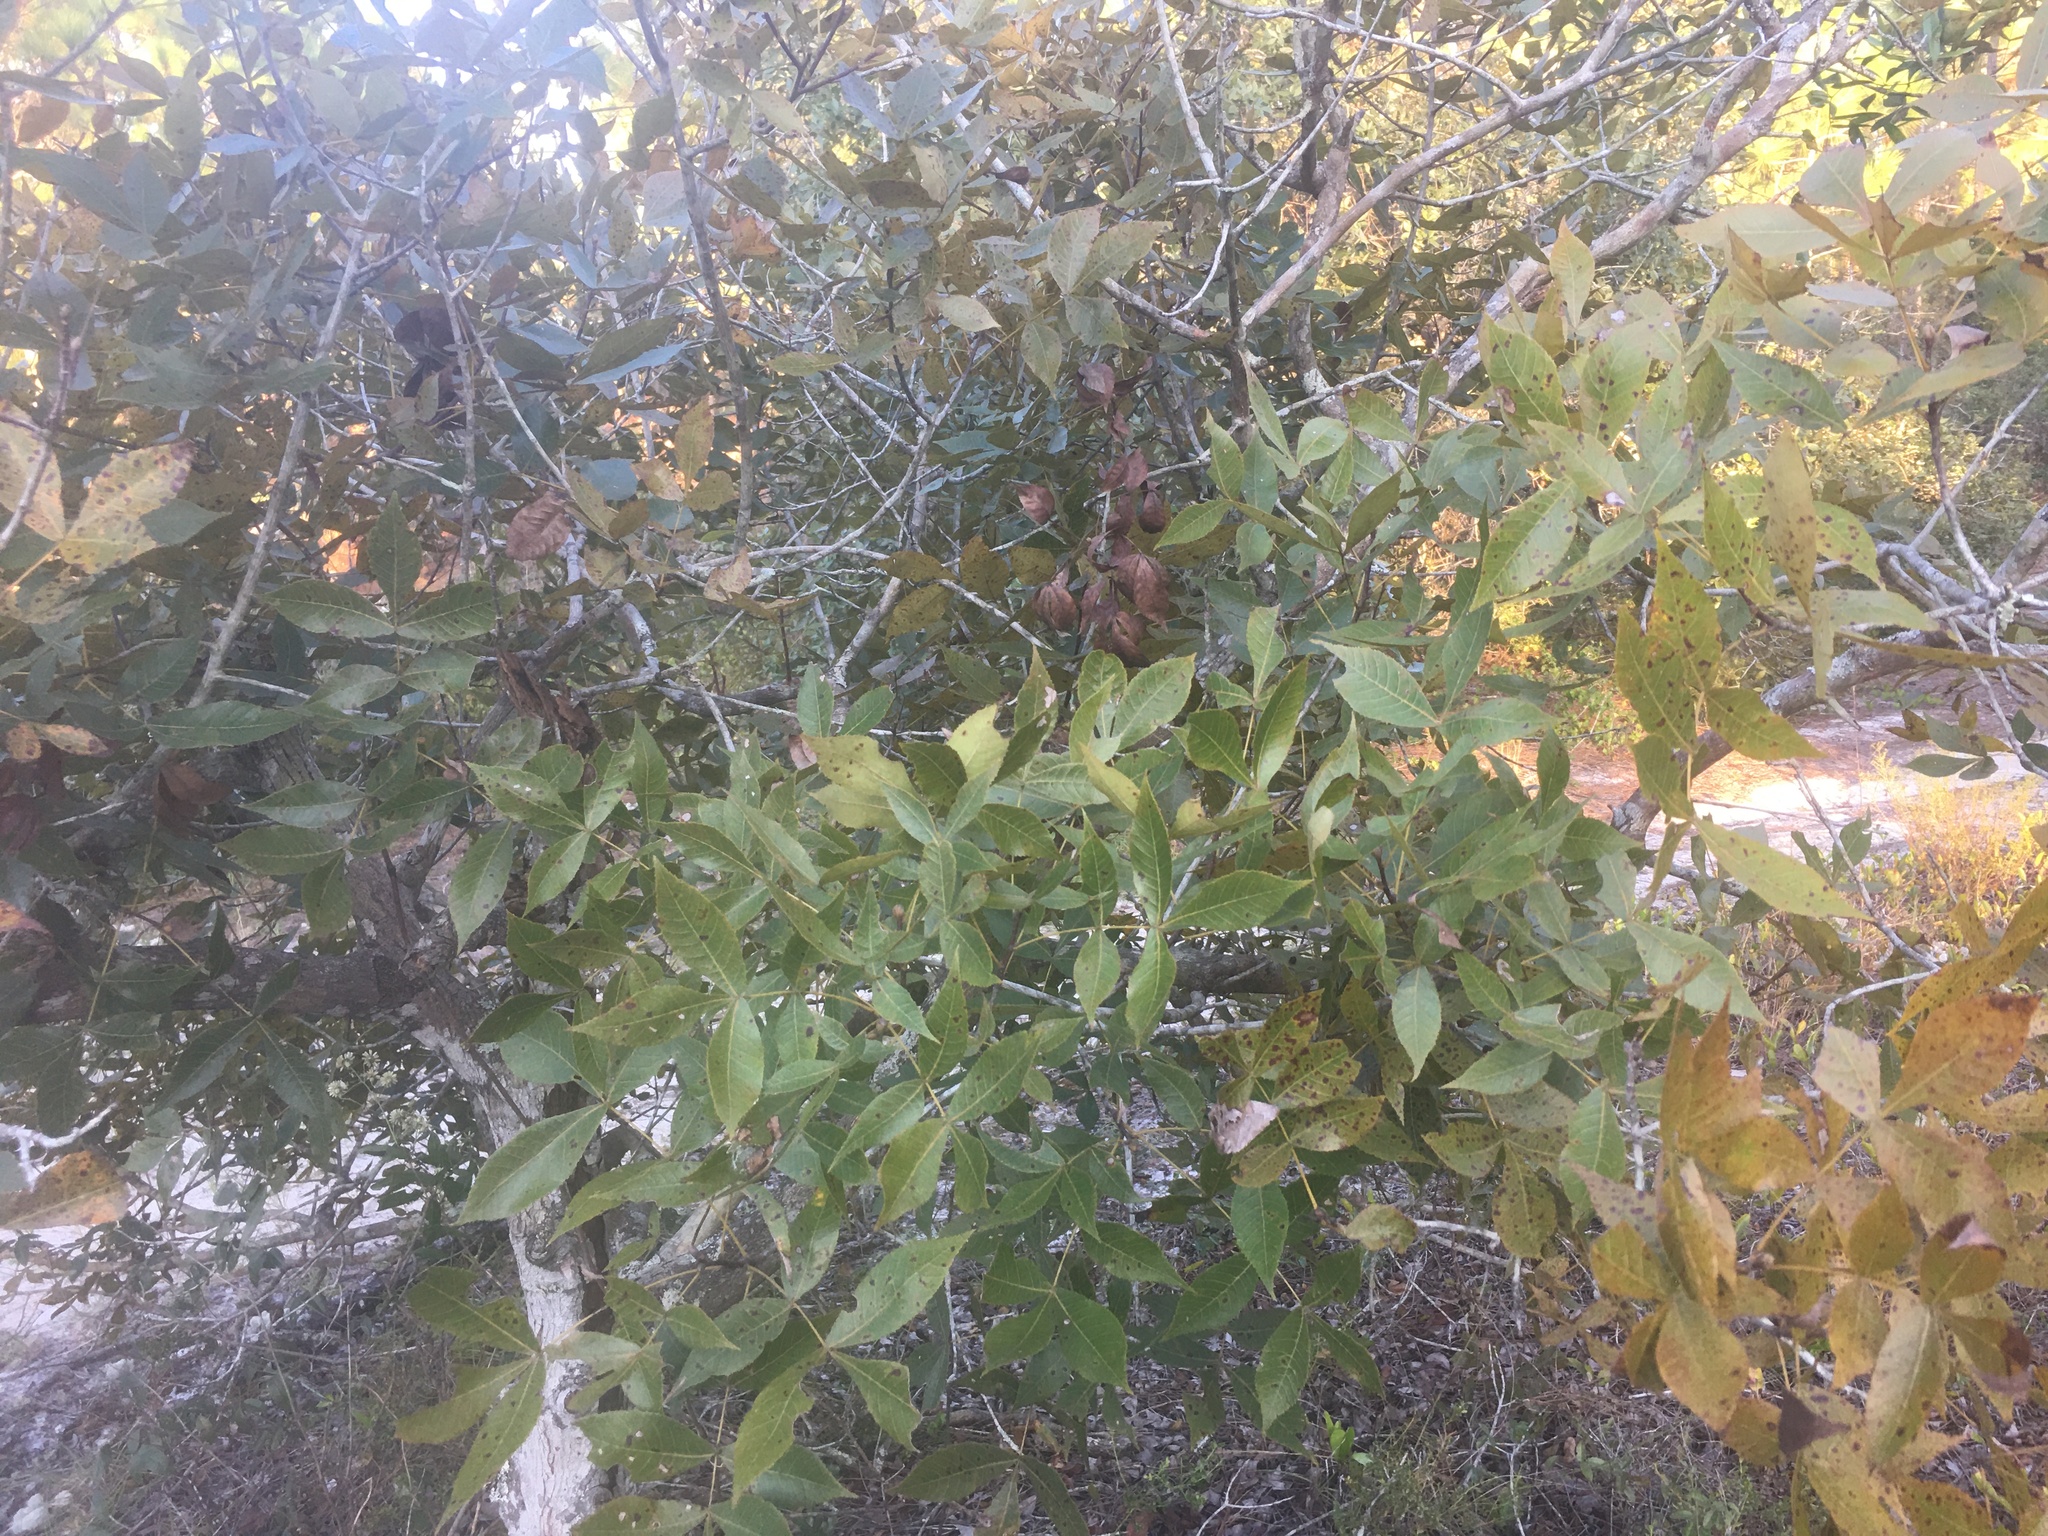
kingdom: Plantae
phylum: Tracheophyta
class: Magnoliopsida
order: Fagales
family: Juglandaceae
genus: Carya
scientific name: Carya floridana
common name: Scrub hickory
